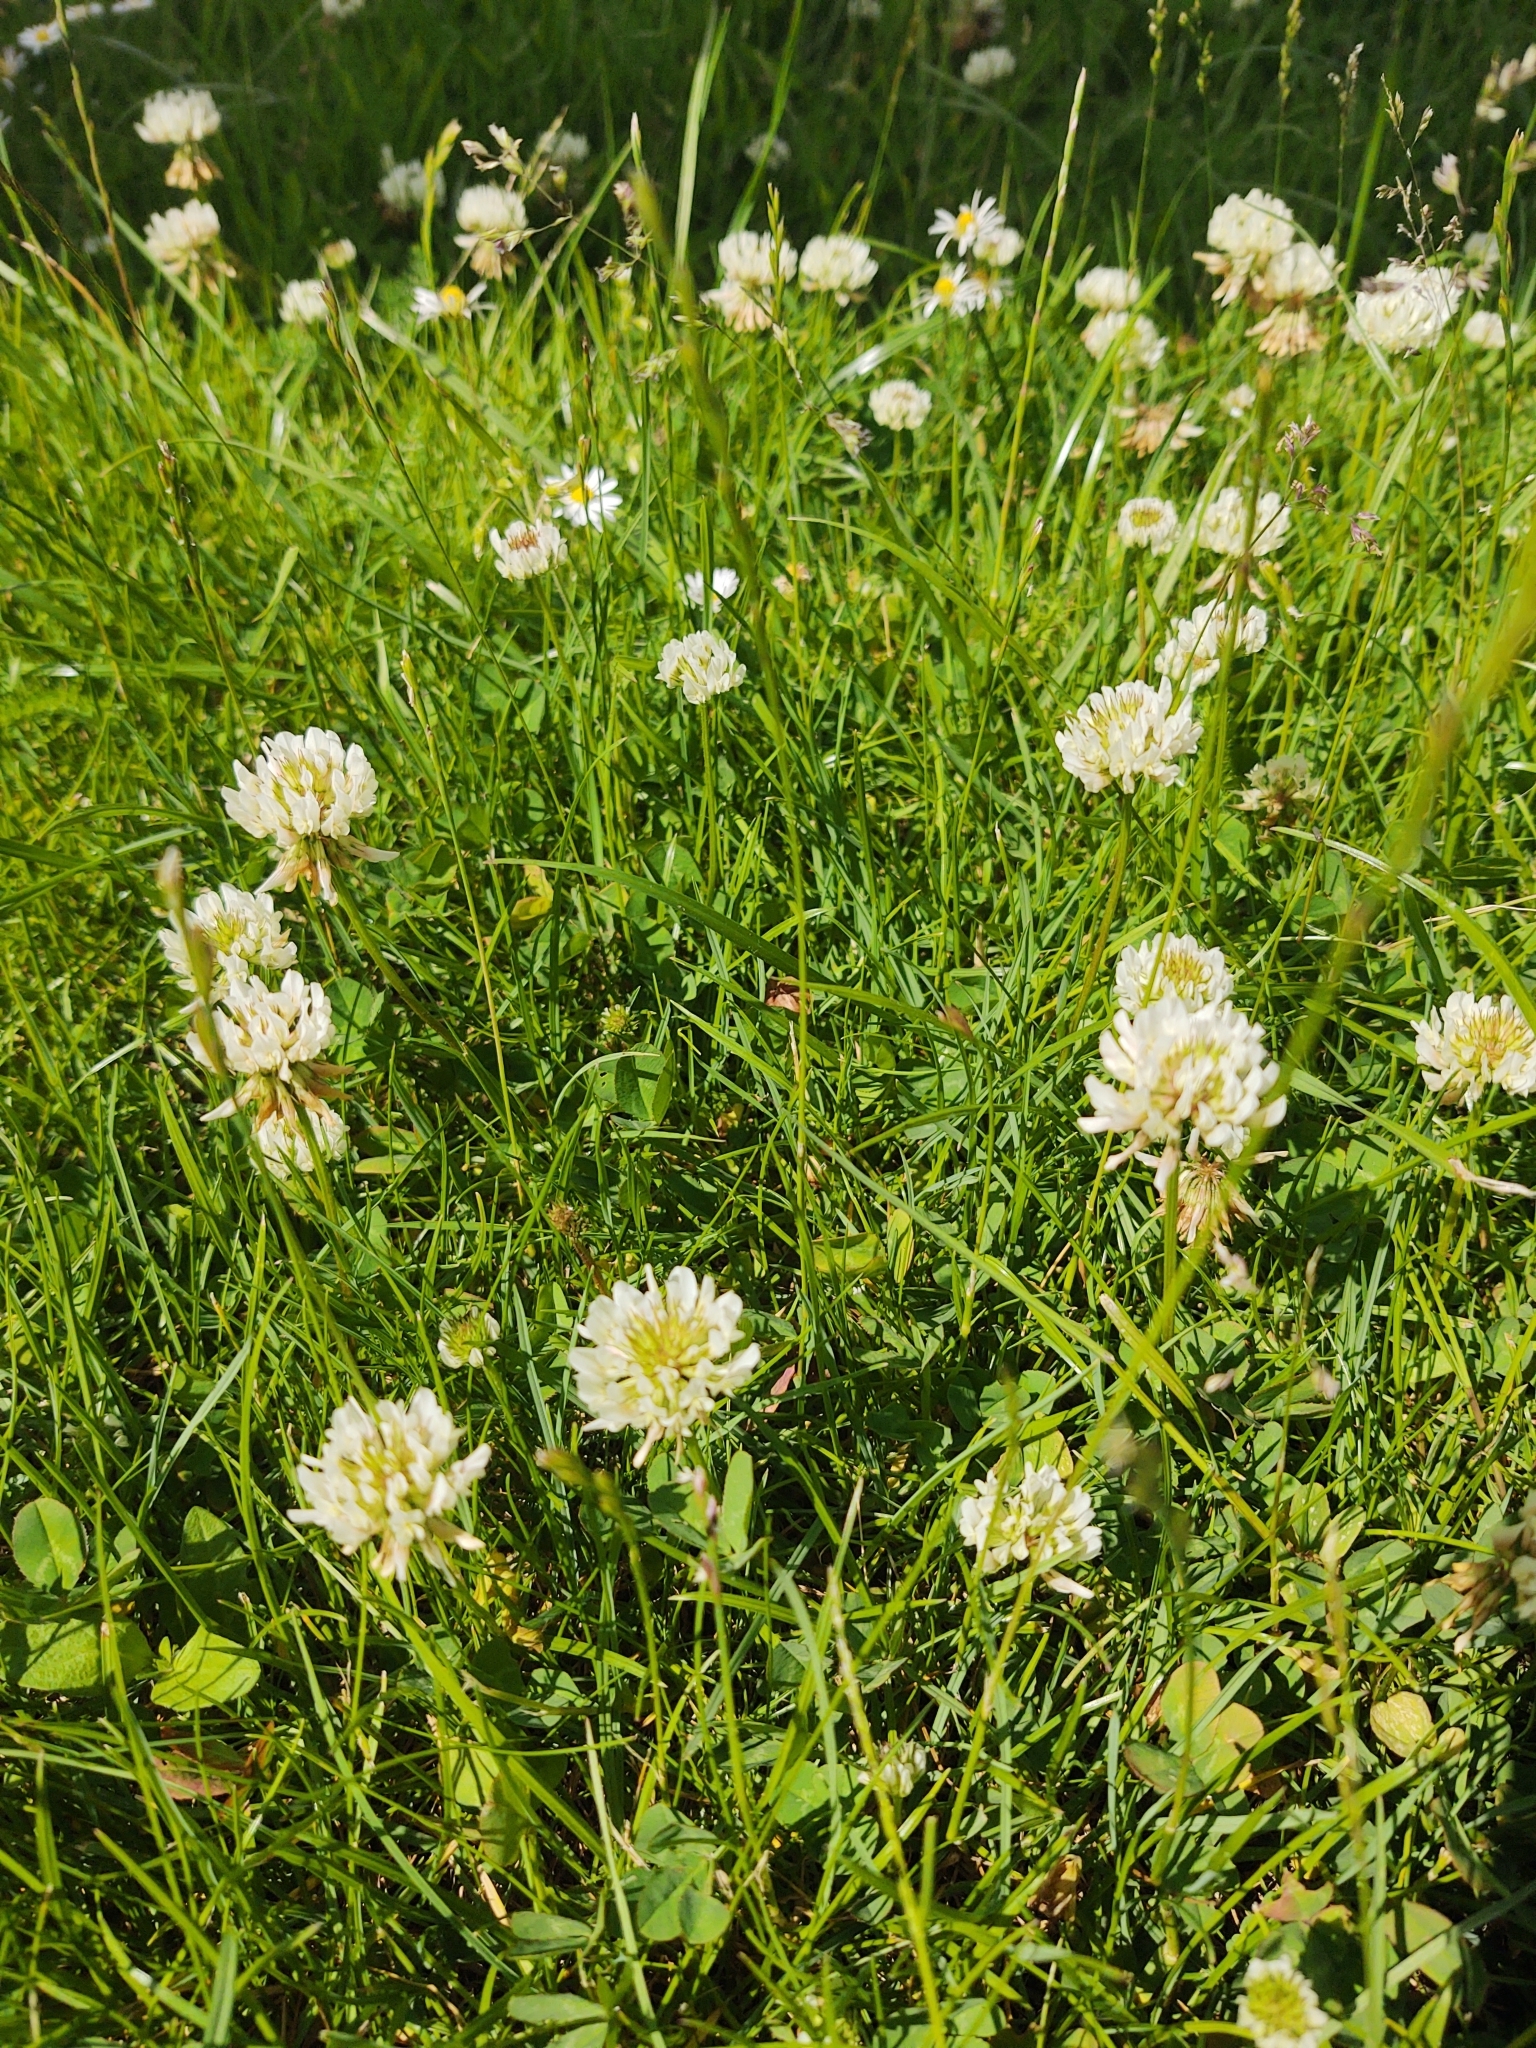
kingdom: Plantae
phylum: Tracheophyta
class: Magnoliopsida
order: Fabales
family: Fabaceae
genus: Trifolium
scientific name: Trifolium repens
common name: White clover
